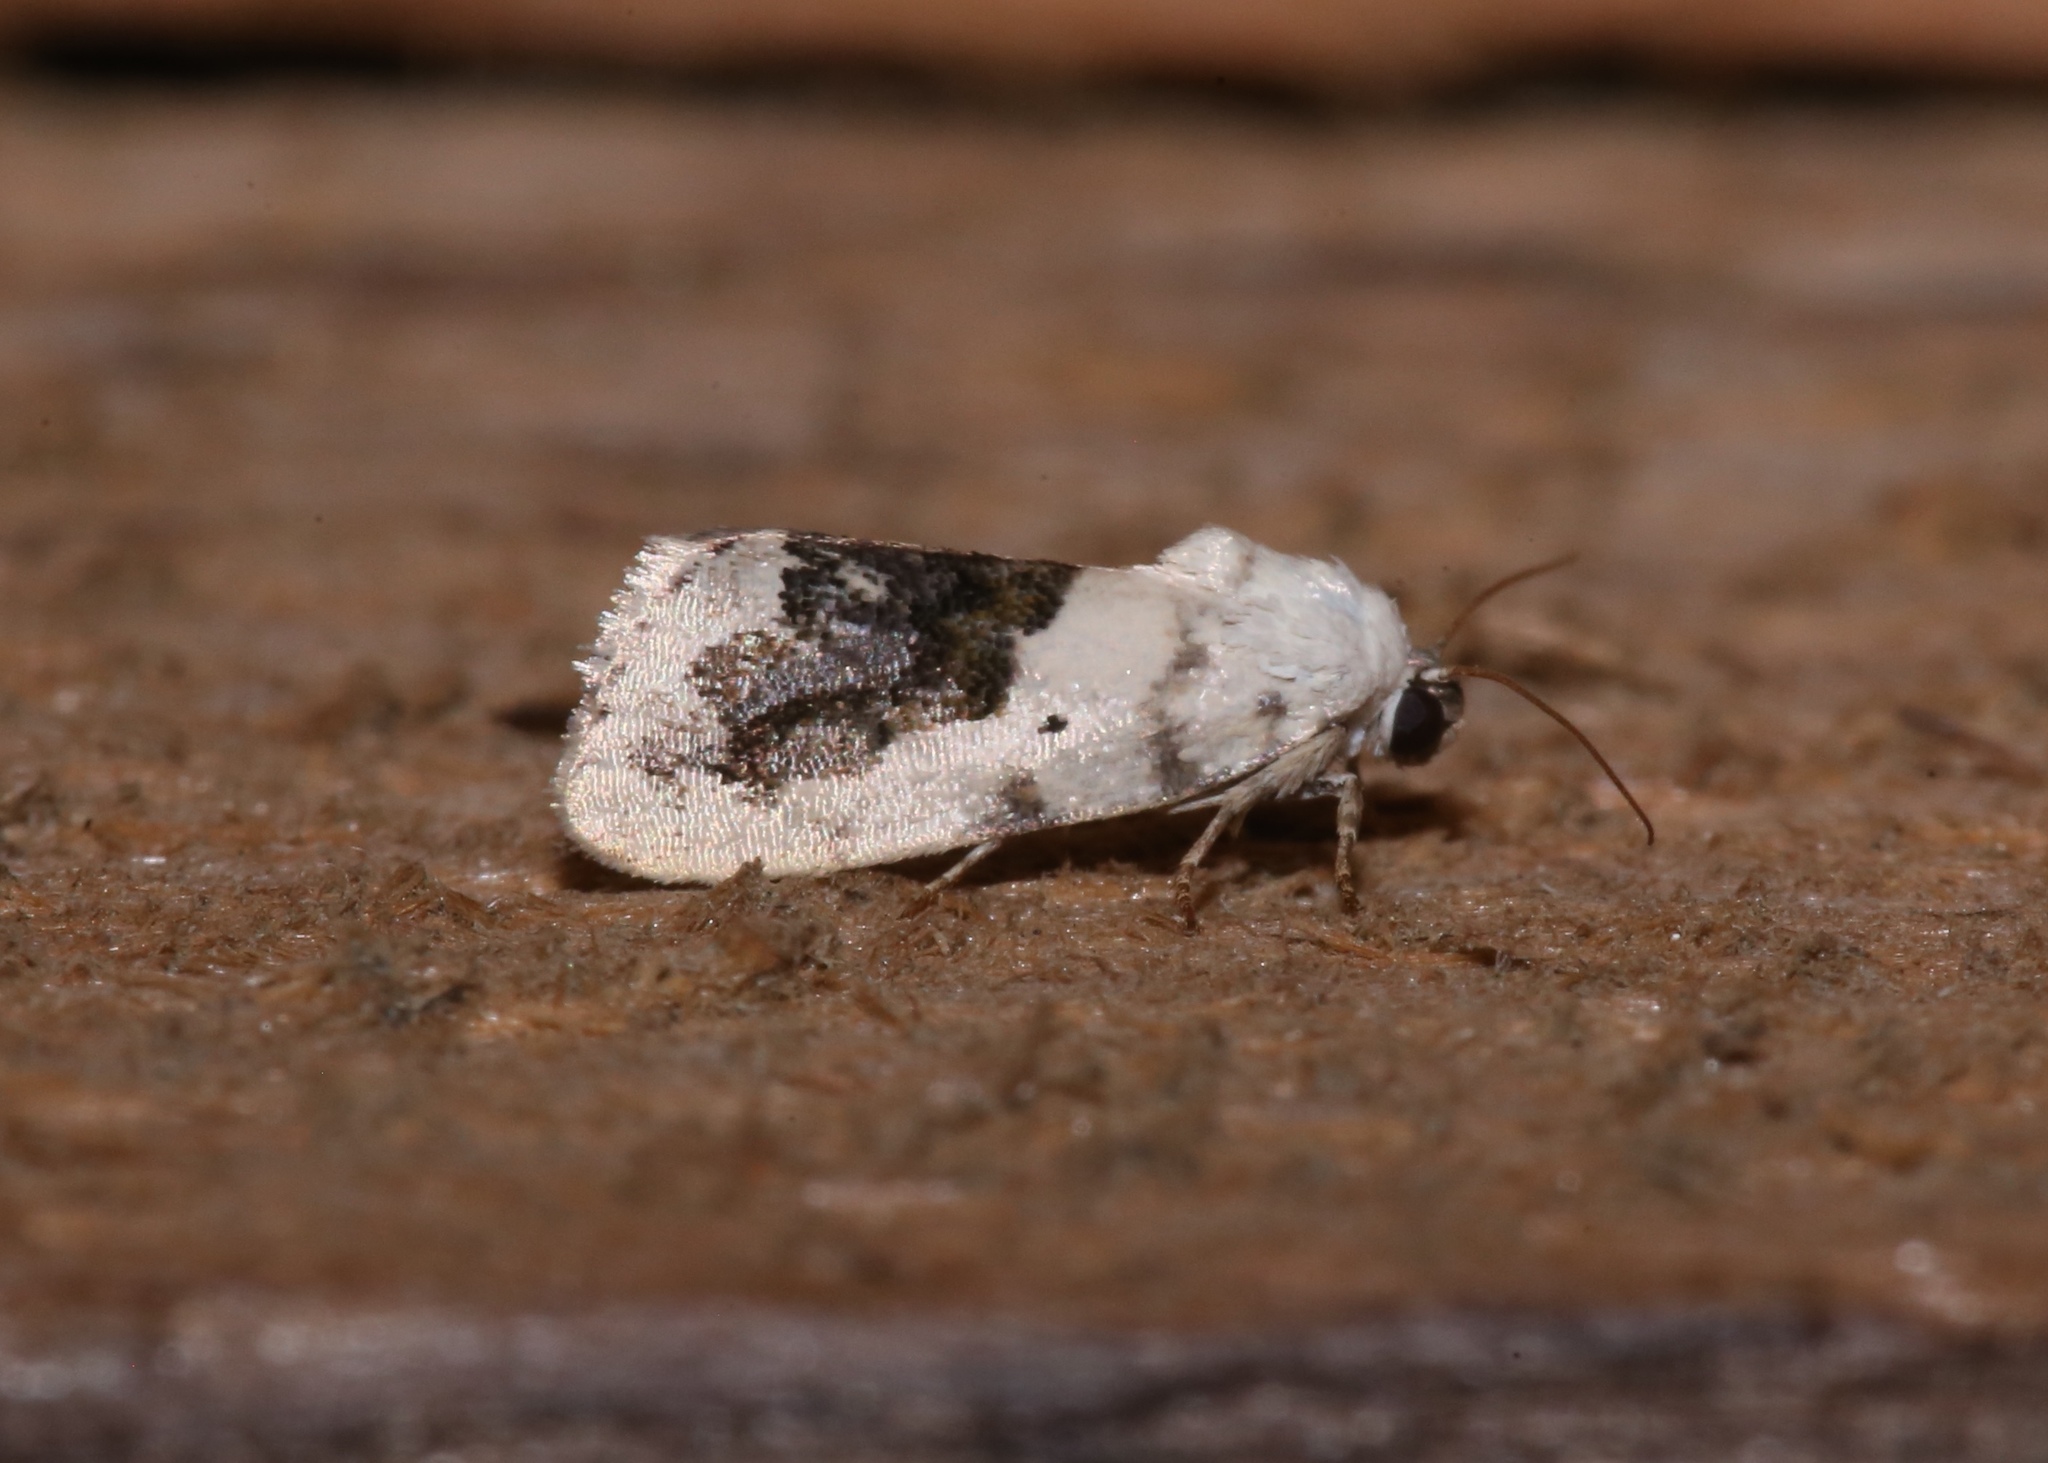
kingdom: Animalia
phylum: Arthropoda
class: Insecta
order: Lepidoptera
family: Noctuidae
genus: Acontia
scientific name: Acontia erastrioides
